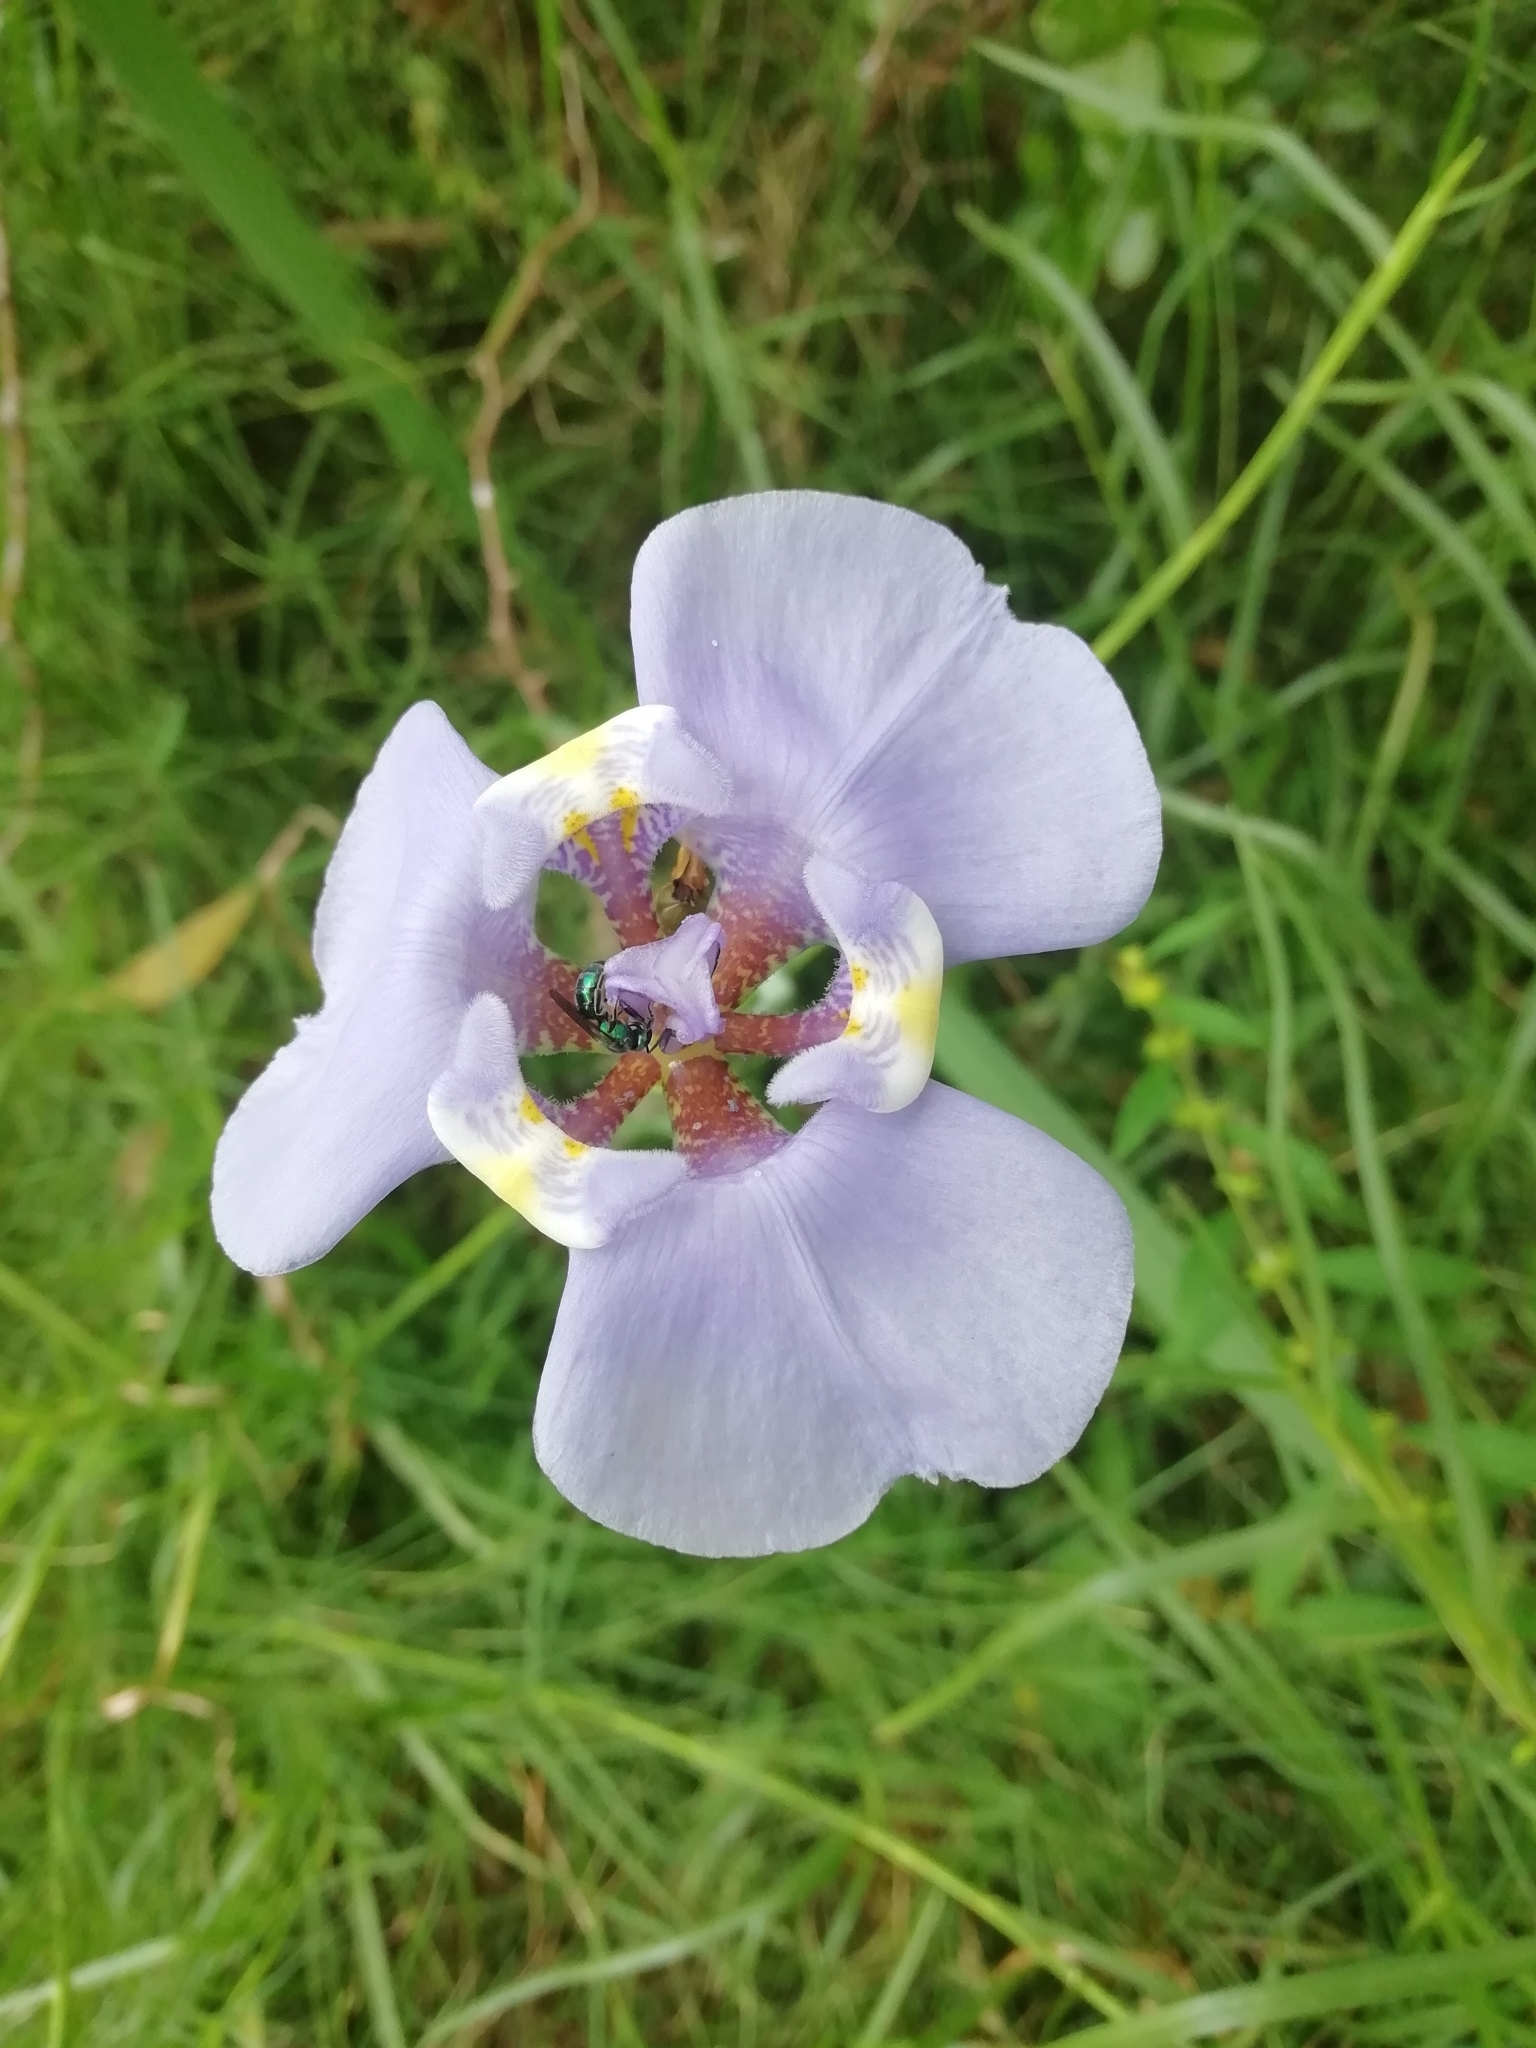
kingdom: Plantae
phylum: Tracheophyta
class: Liliopsida
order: Asparagales
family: Iridaceae
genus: Phalocallis
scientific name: Phalocallis coelestis
